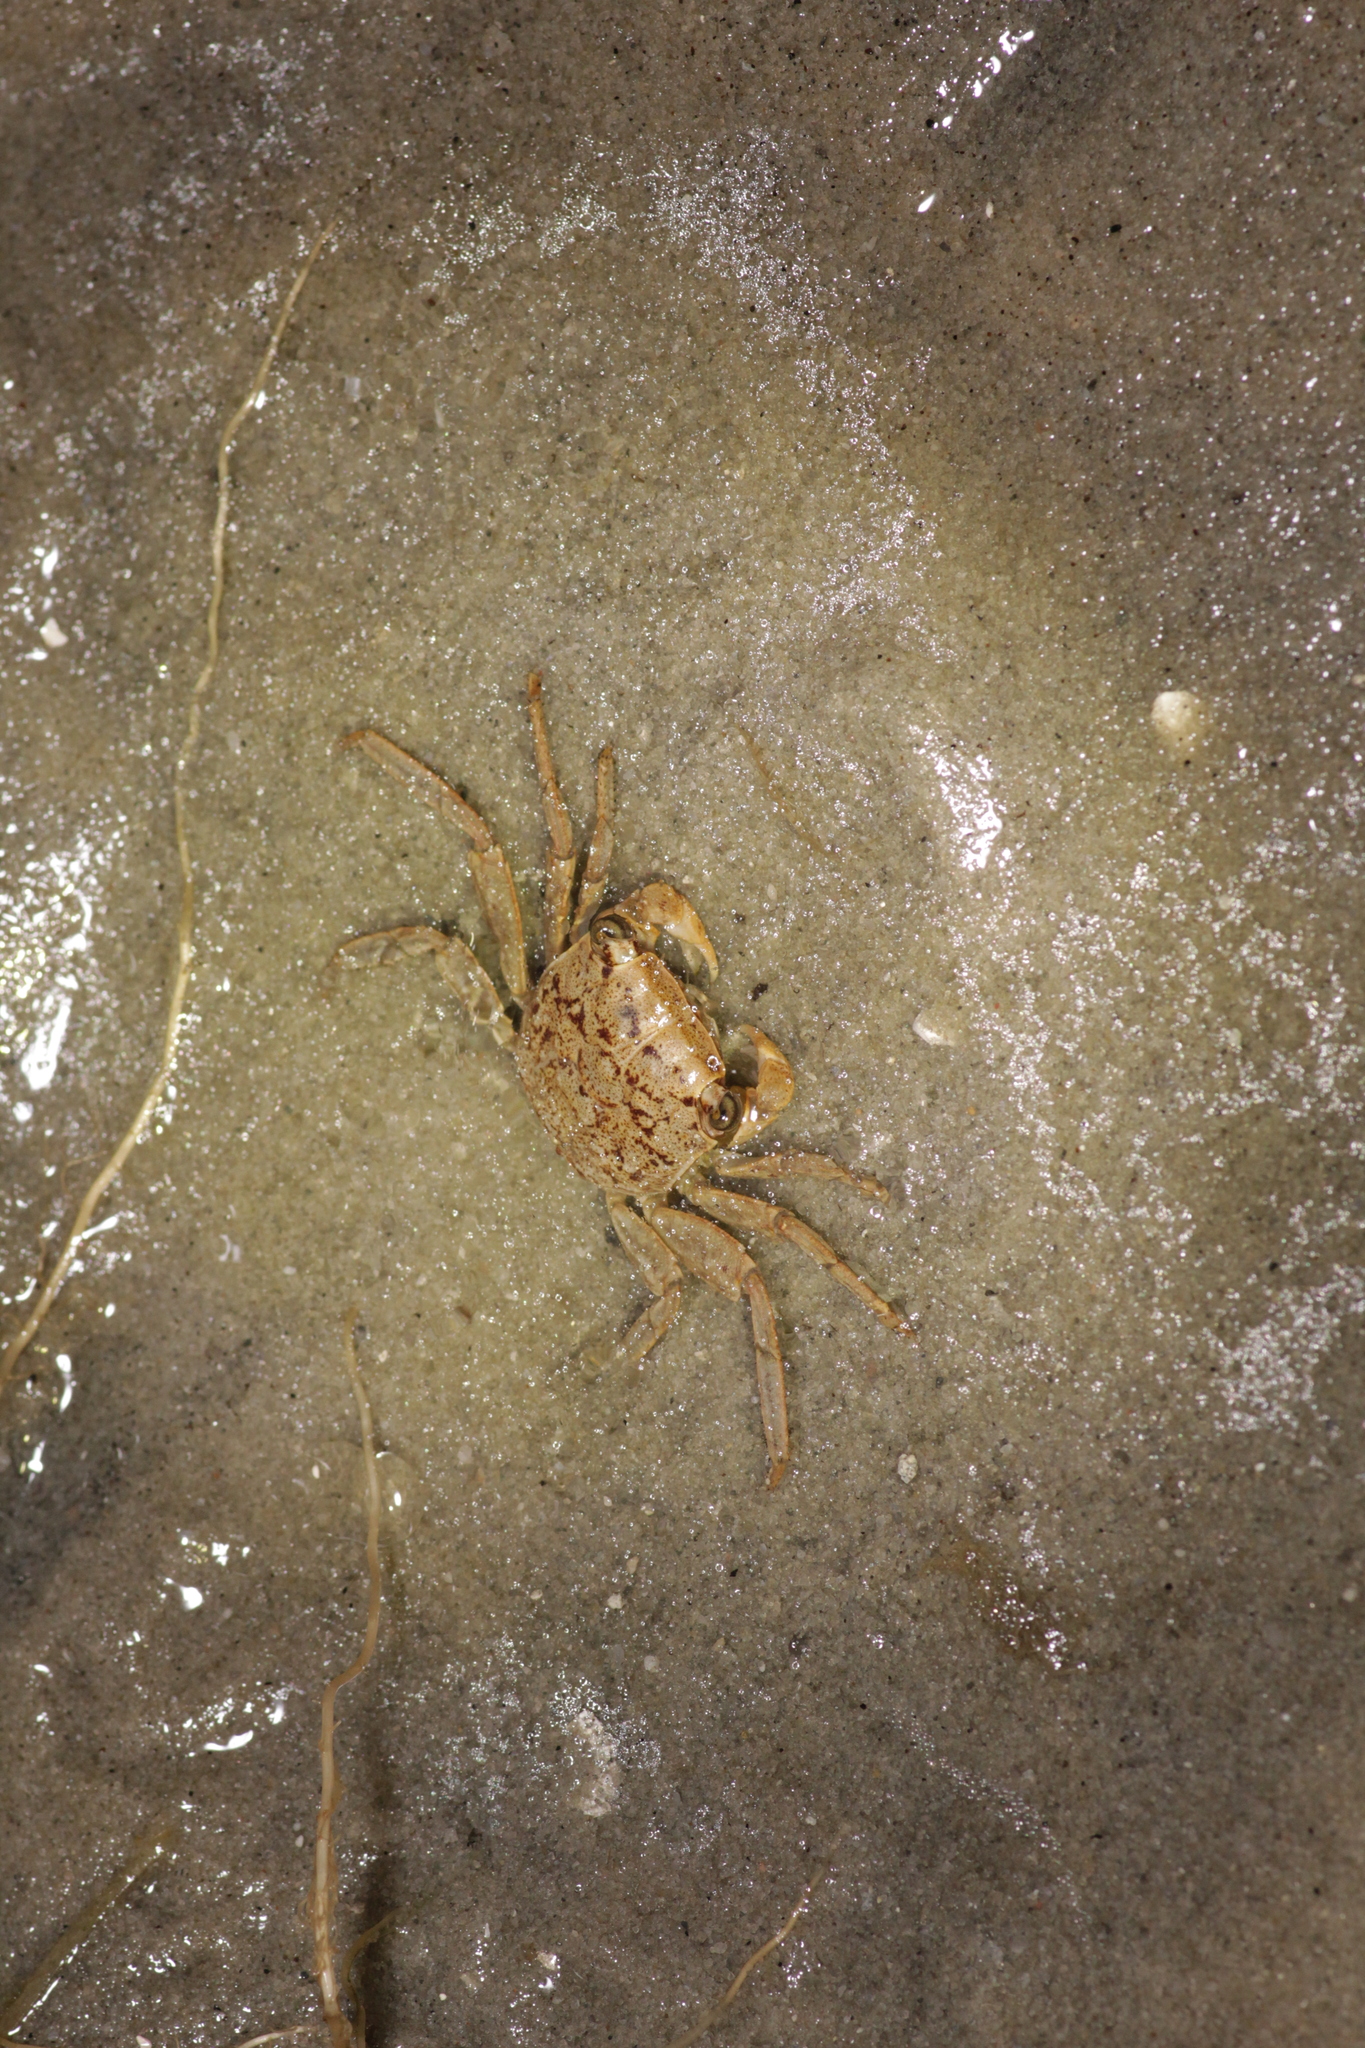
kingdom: Animalia
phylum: Arthropoda
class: Malacostraca
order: Decapoda
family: Sesarmidae
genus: Armases
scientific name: Armases cinereum
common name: Squareback marsh crab
